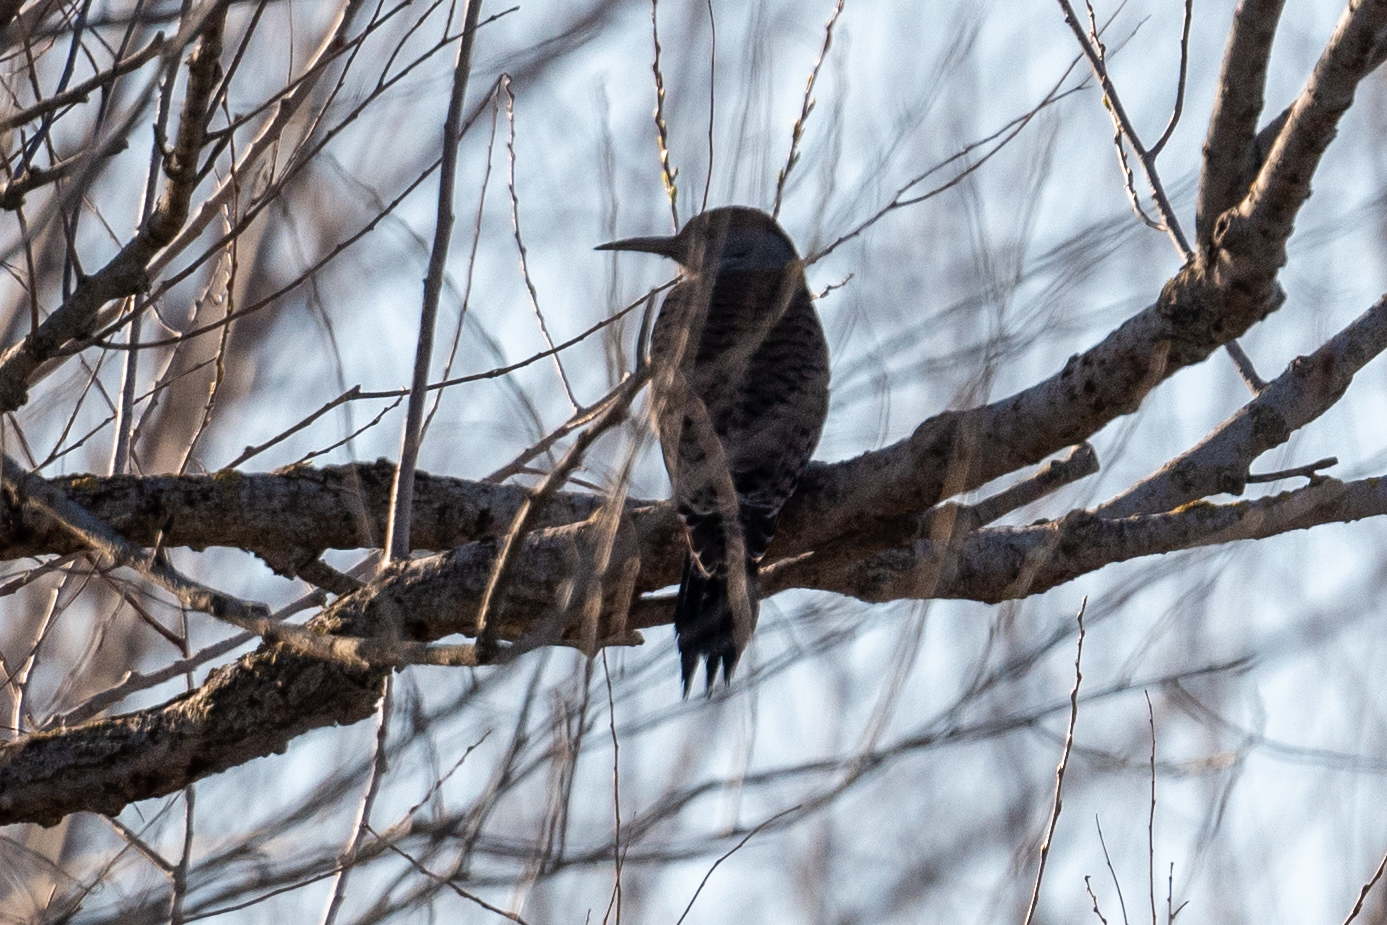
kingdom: Animalia
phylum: Chordata
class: Aves
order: Piciformes
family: Picidae
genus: Colaptes
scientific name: Colaptes auratus
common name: Northern flicker
